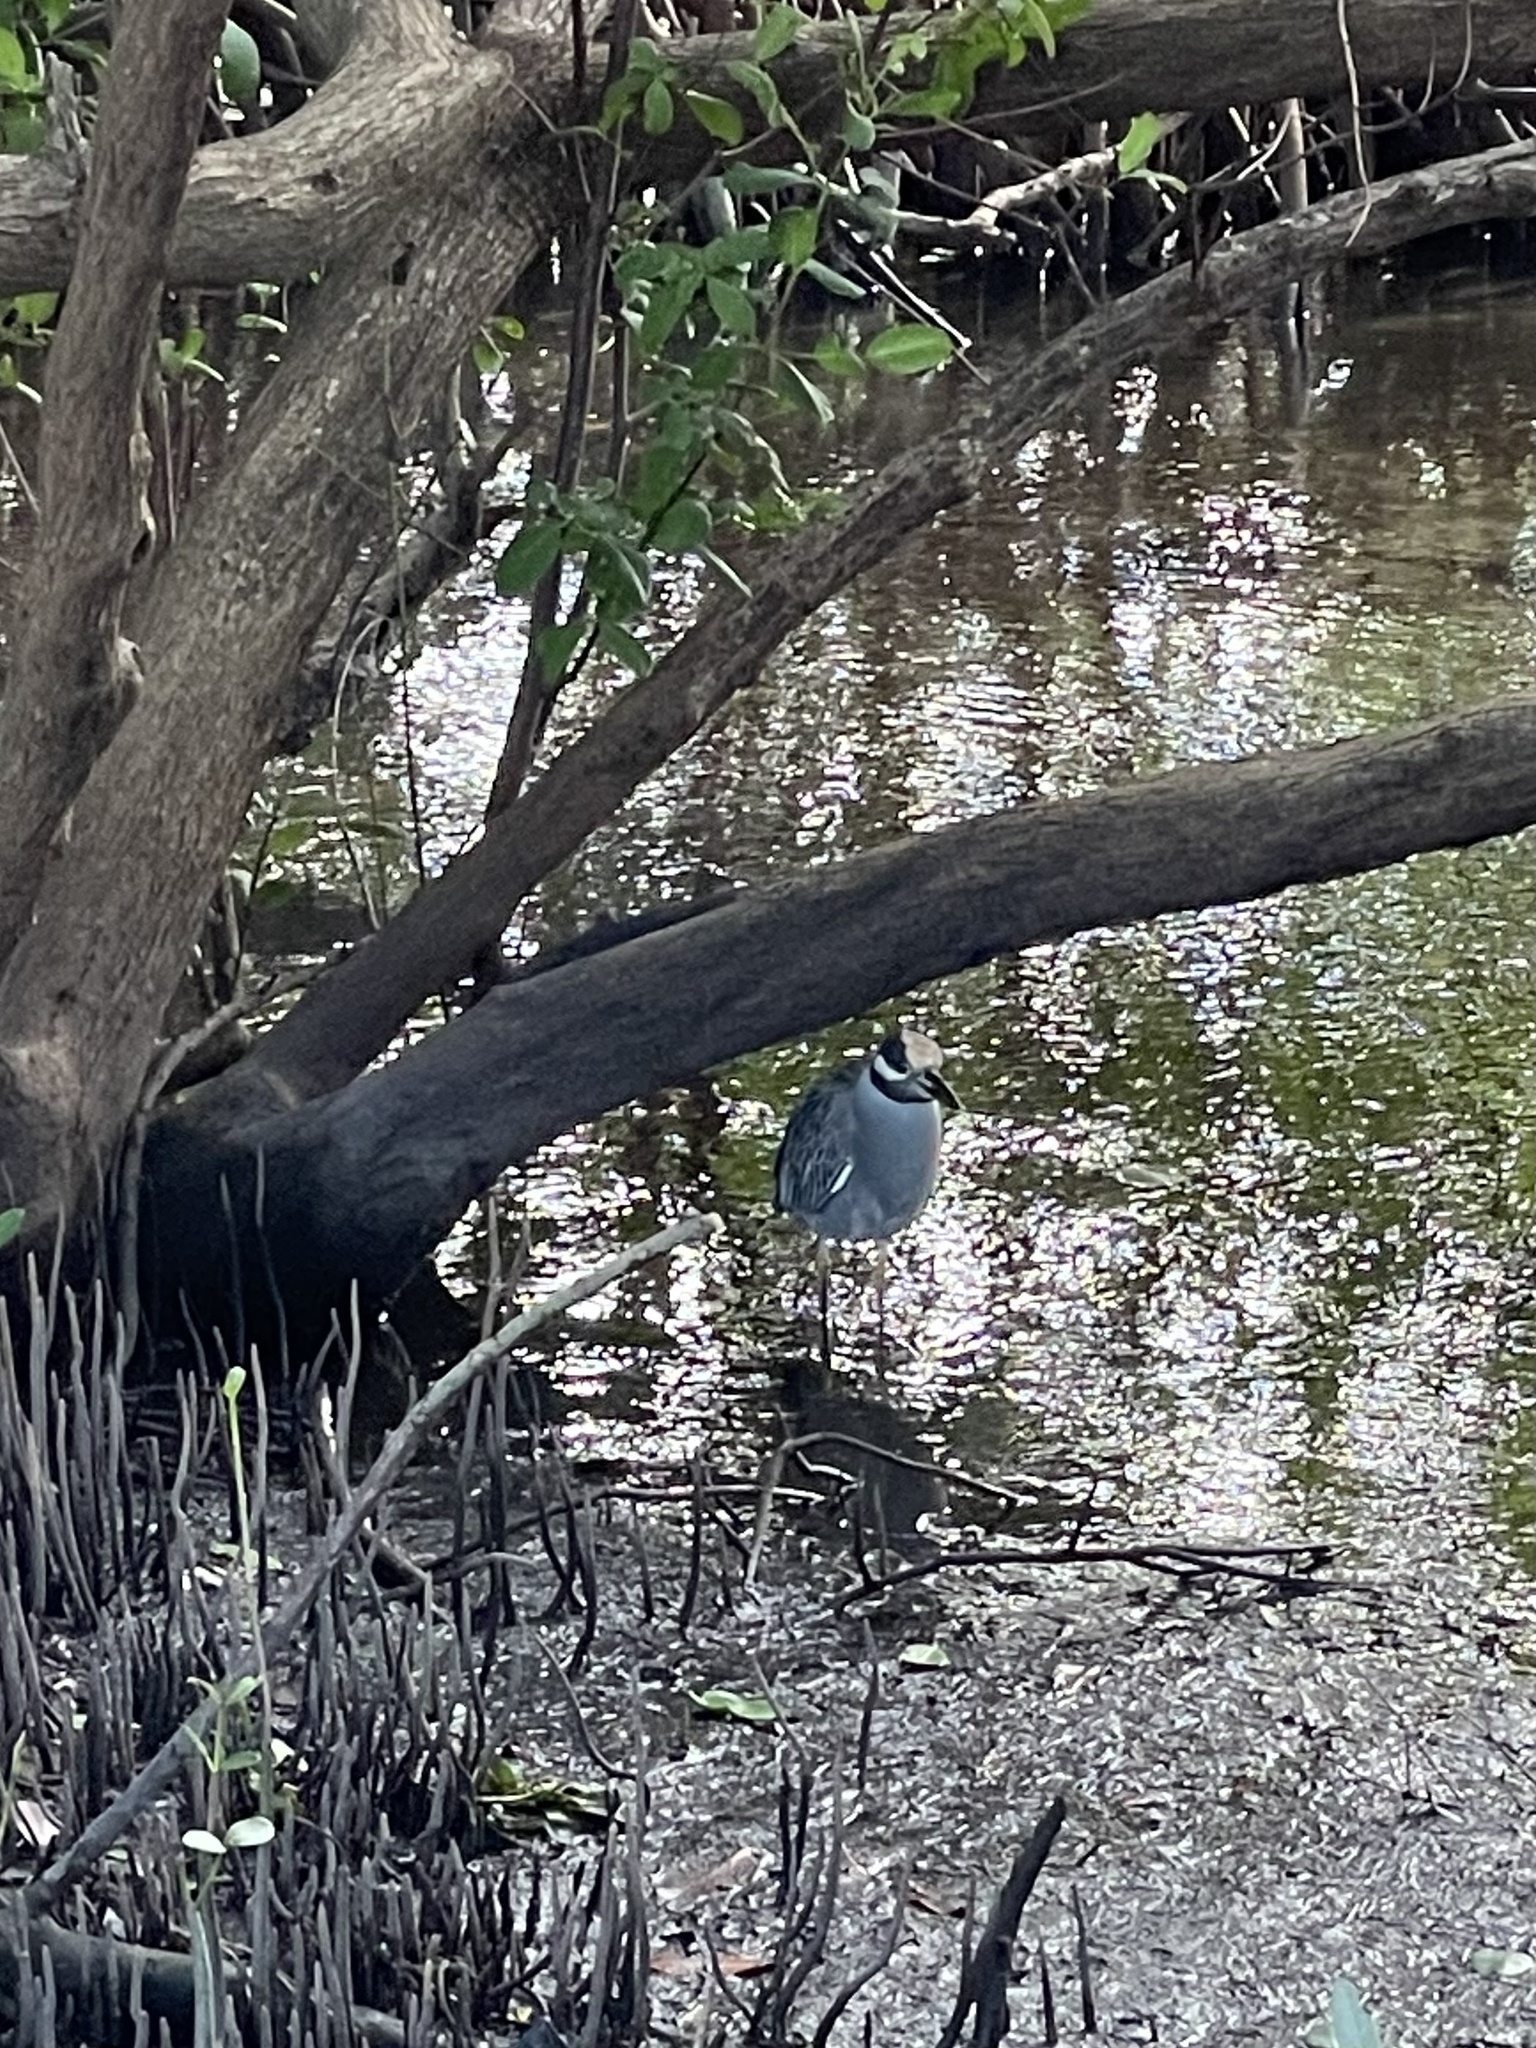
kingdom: Animalia
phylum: Chordata
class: Aves
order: Pelecaniformes
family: Ardeidae
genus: Nyctanassa
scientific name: Nyctanassa violacea
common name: Yellow-crowned night heron
